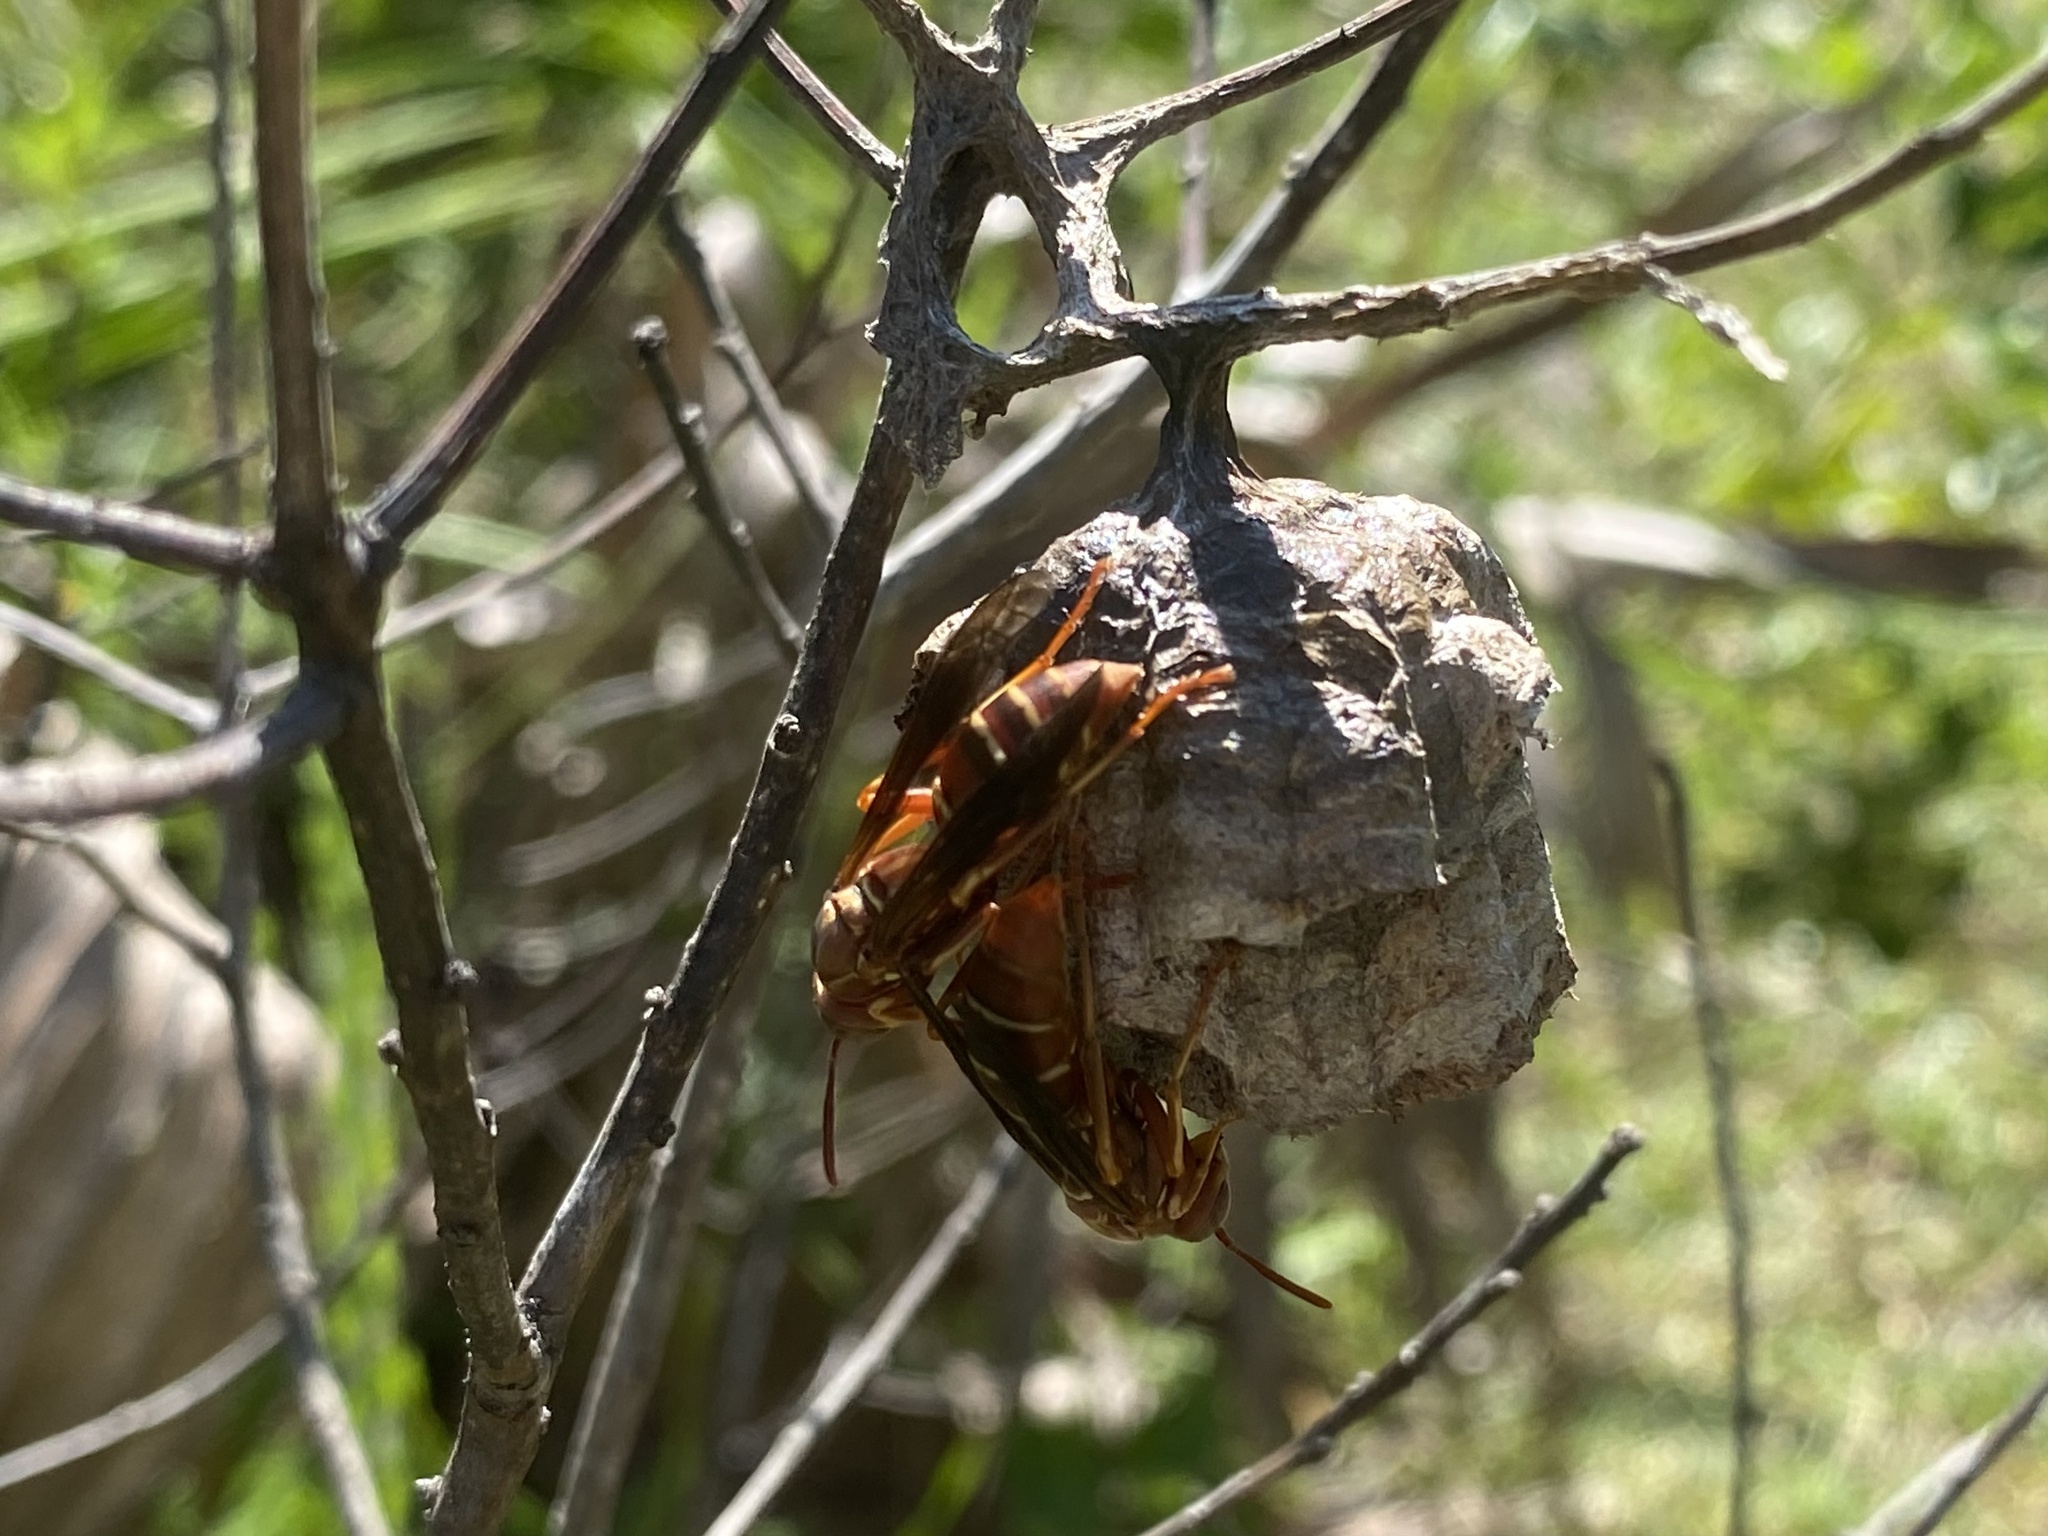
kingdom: Animalia
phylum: Arthropoda
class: Insecta
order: Hymenoptera
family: Eumenidae
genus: Polistes
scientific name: Polistes bellicosus
